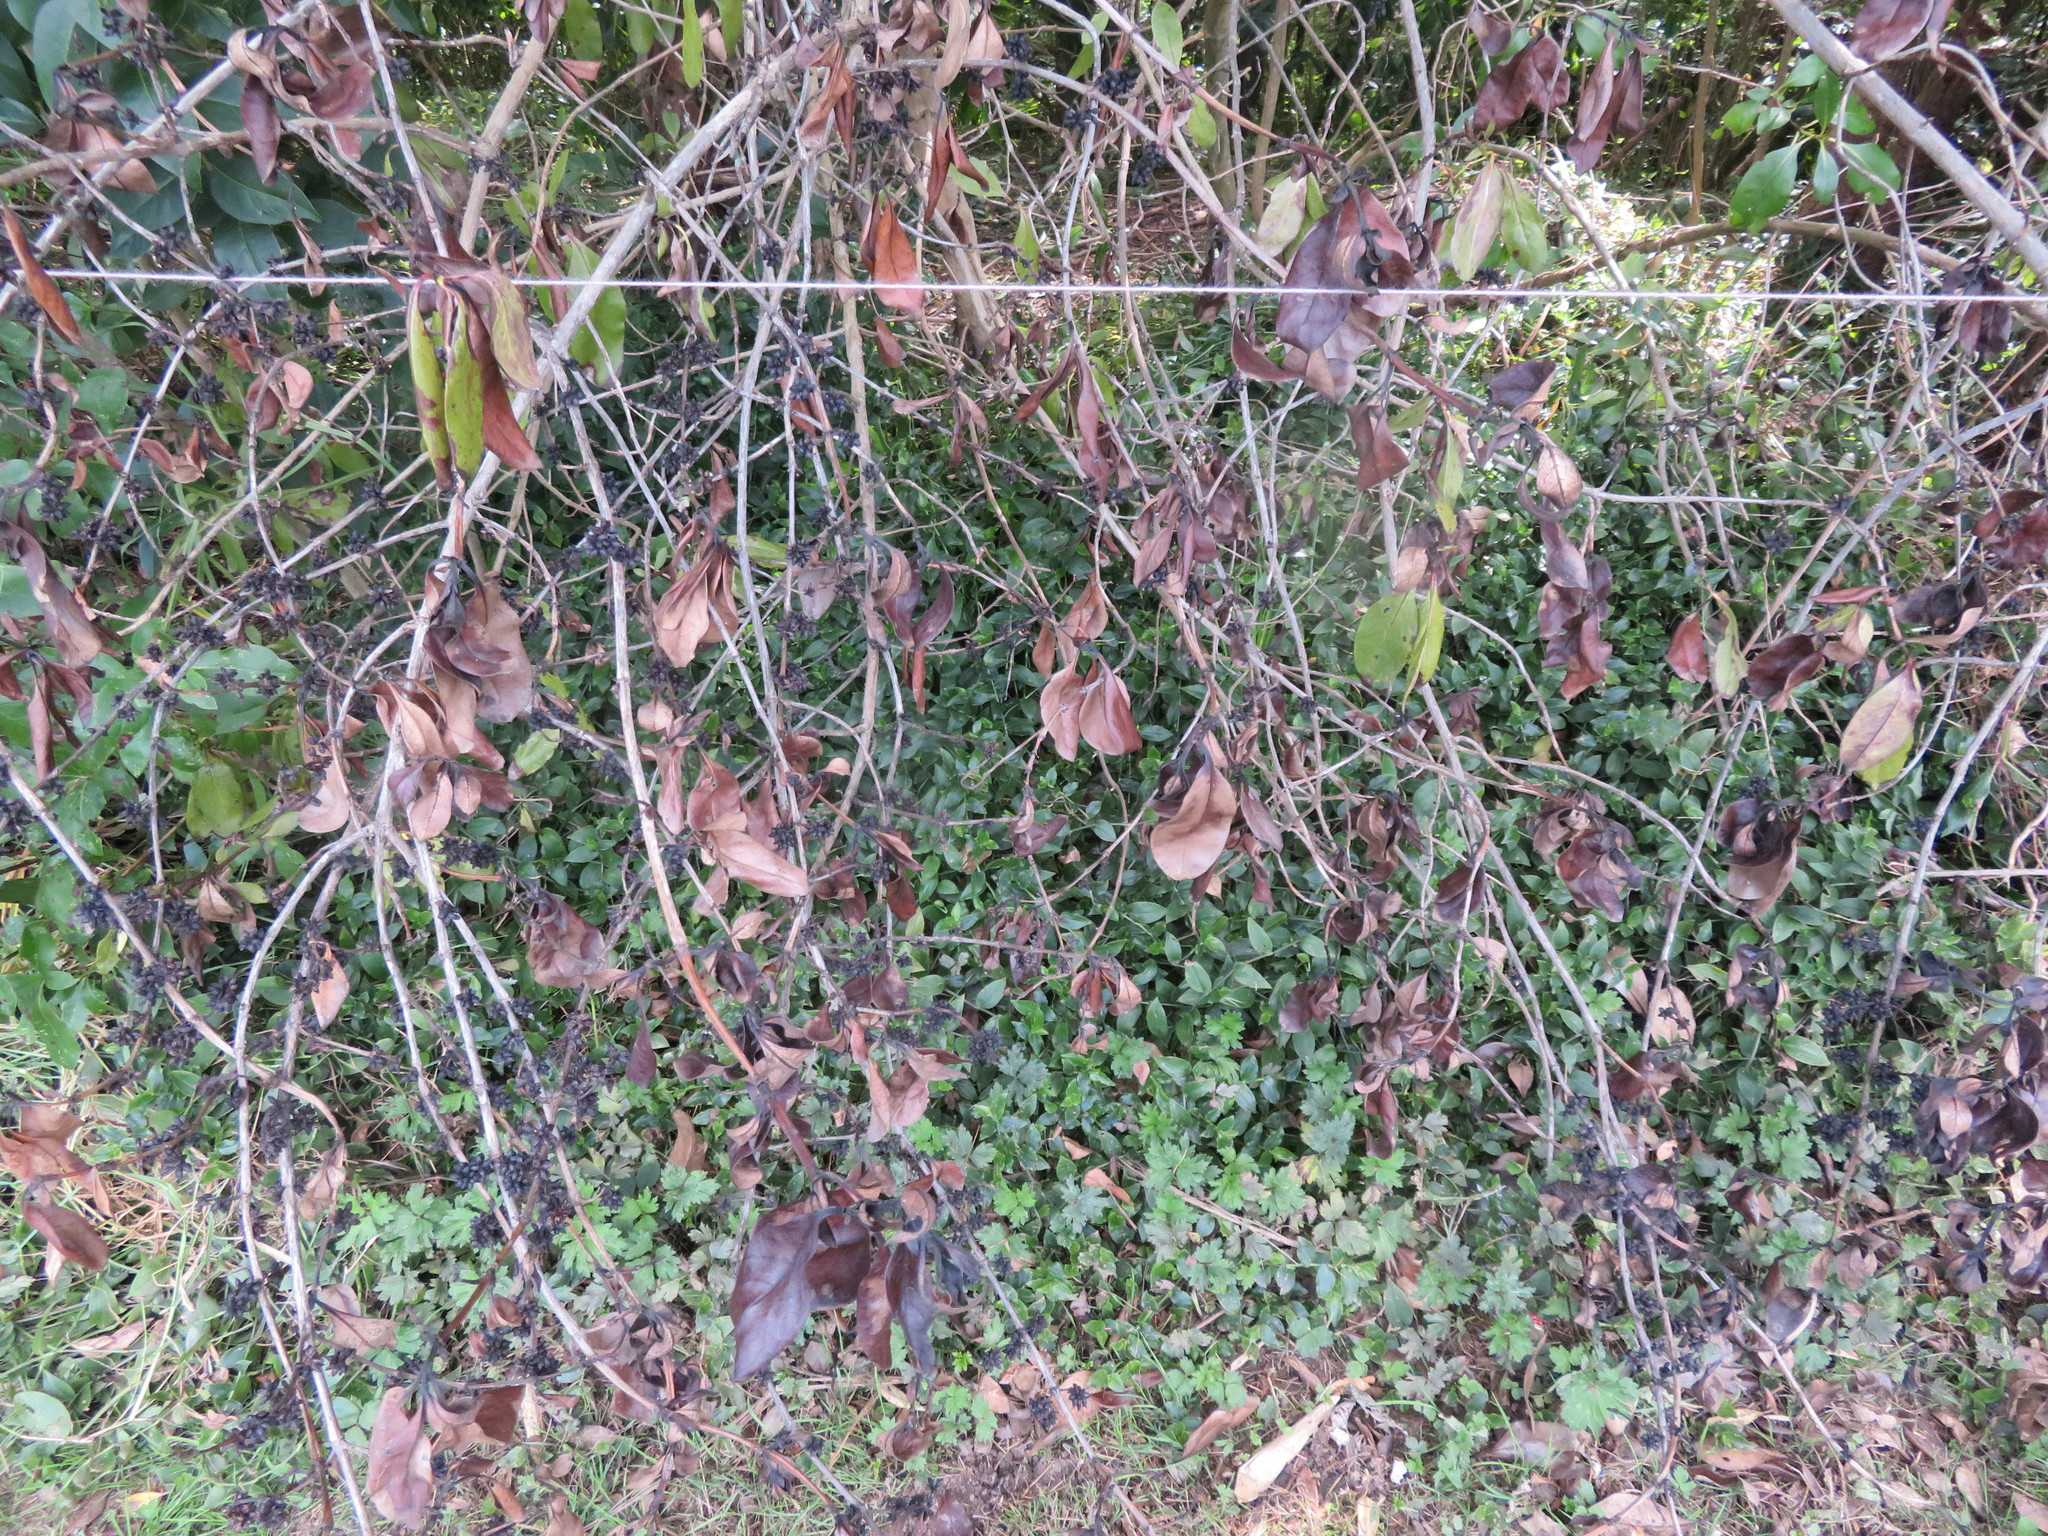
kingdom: Plantae
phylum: Tracheophyta
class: Magnoliopsida
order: Gentianales
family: Rubiaceae
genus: Coprosma
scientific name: Coprosma robusta
